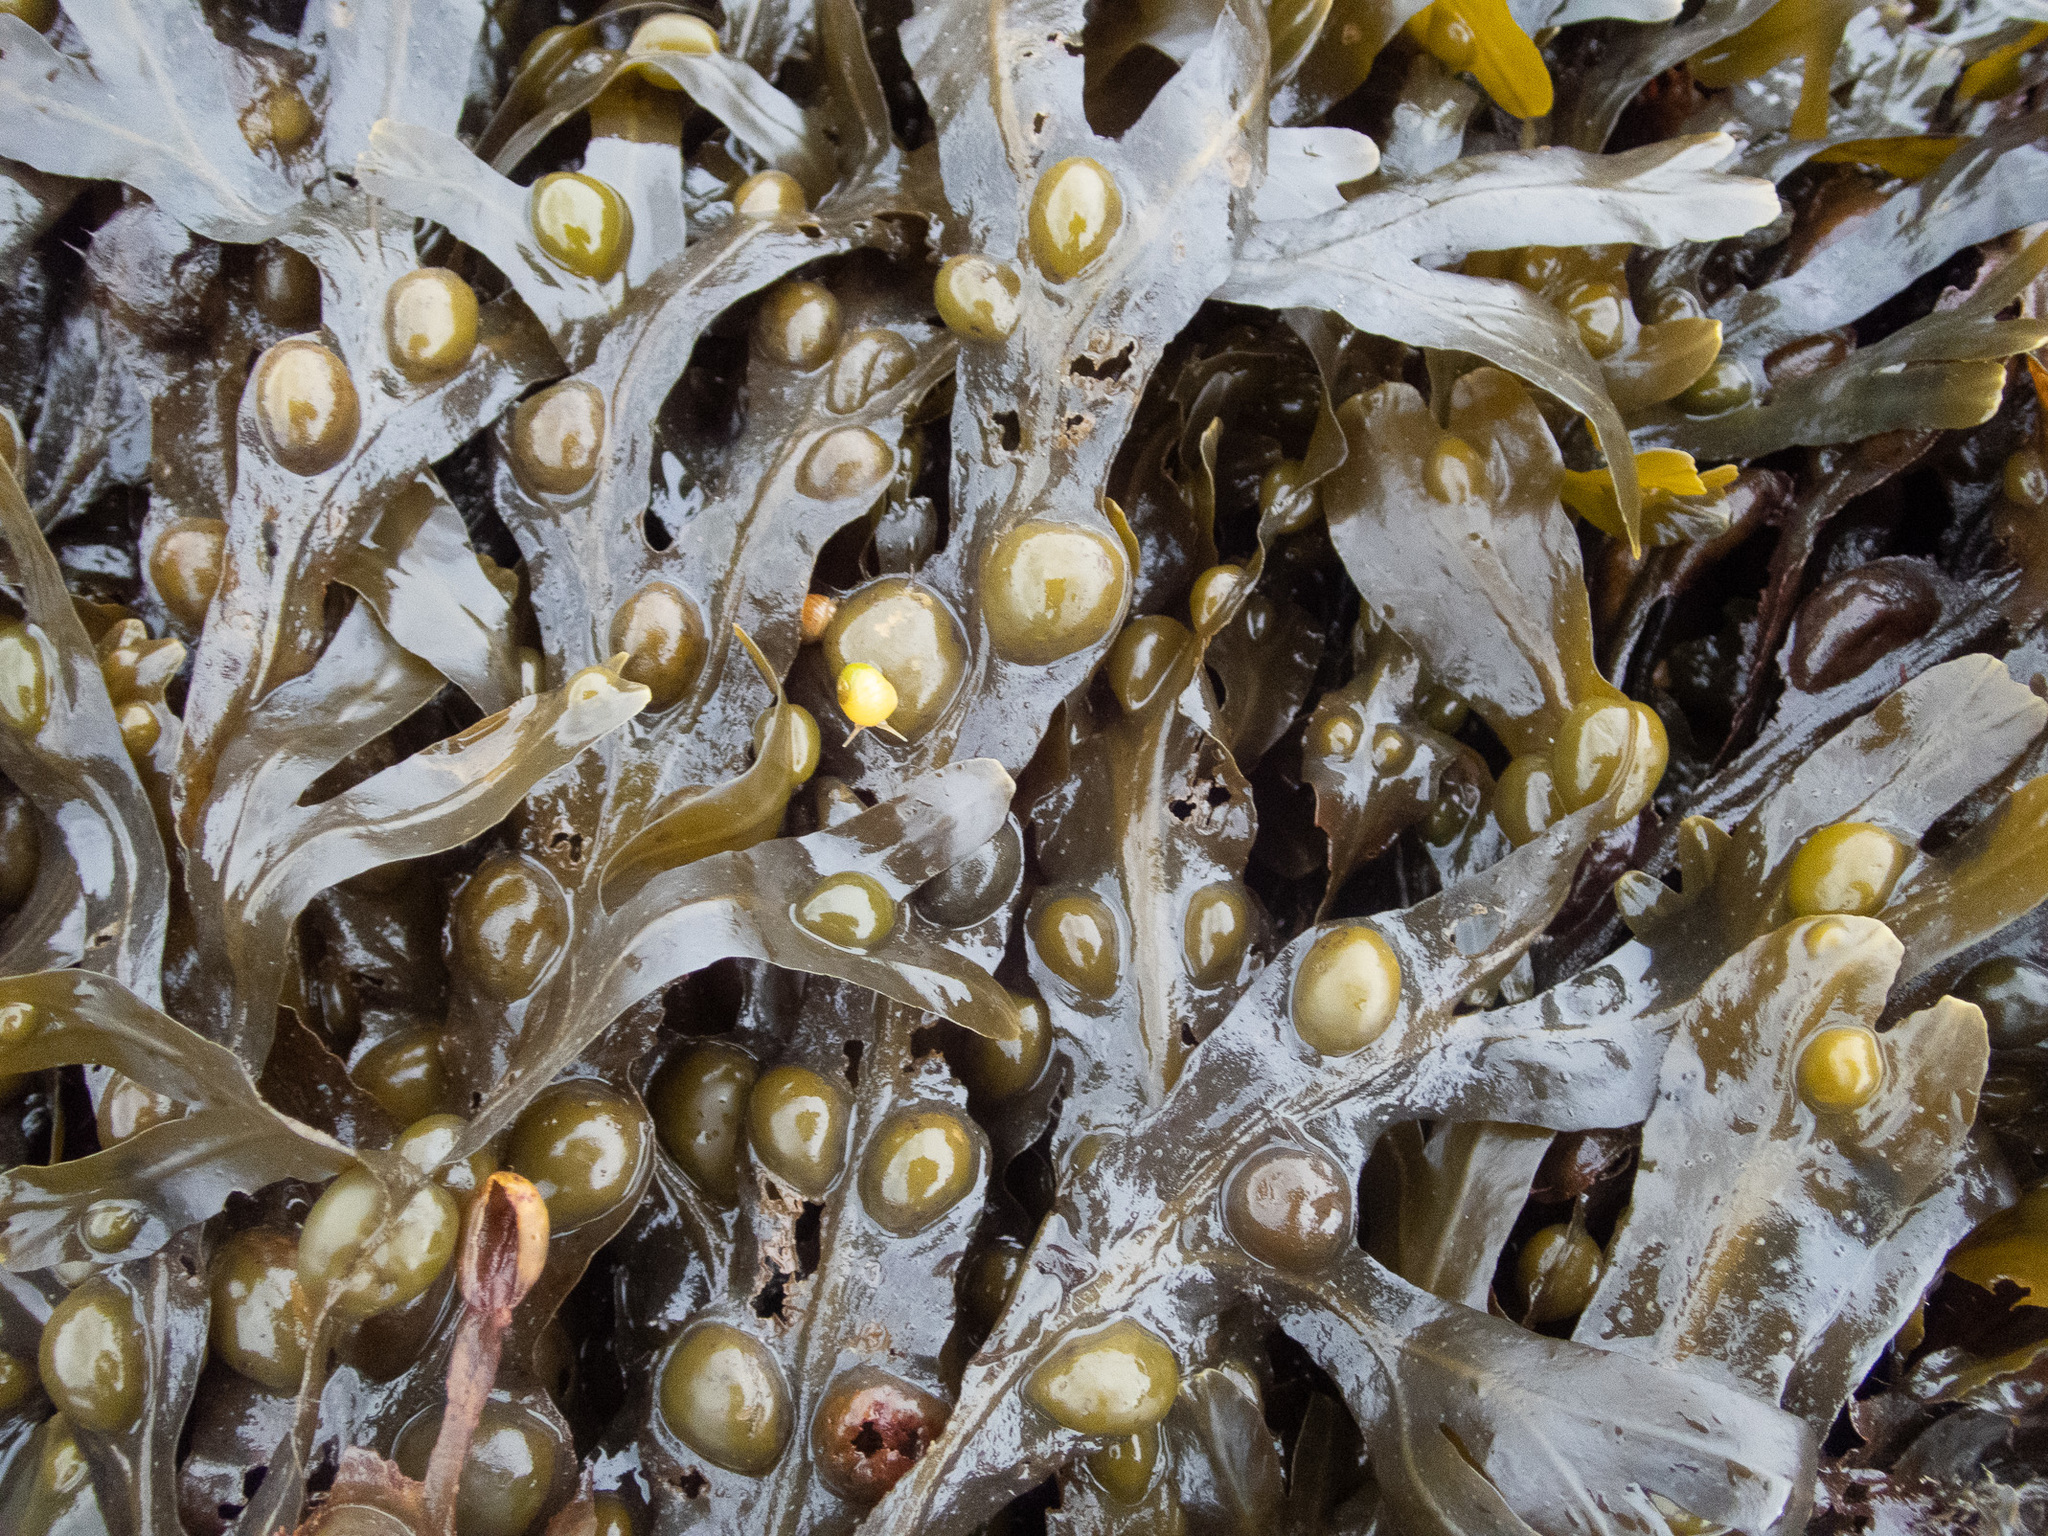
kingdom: Chromista
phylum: Ochrophyta
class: Phaeophyceae
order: Fucales
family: Fucaceae
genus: Fucus
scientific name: Fucus vesiculosus
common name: Bladder wrack
